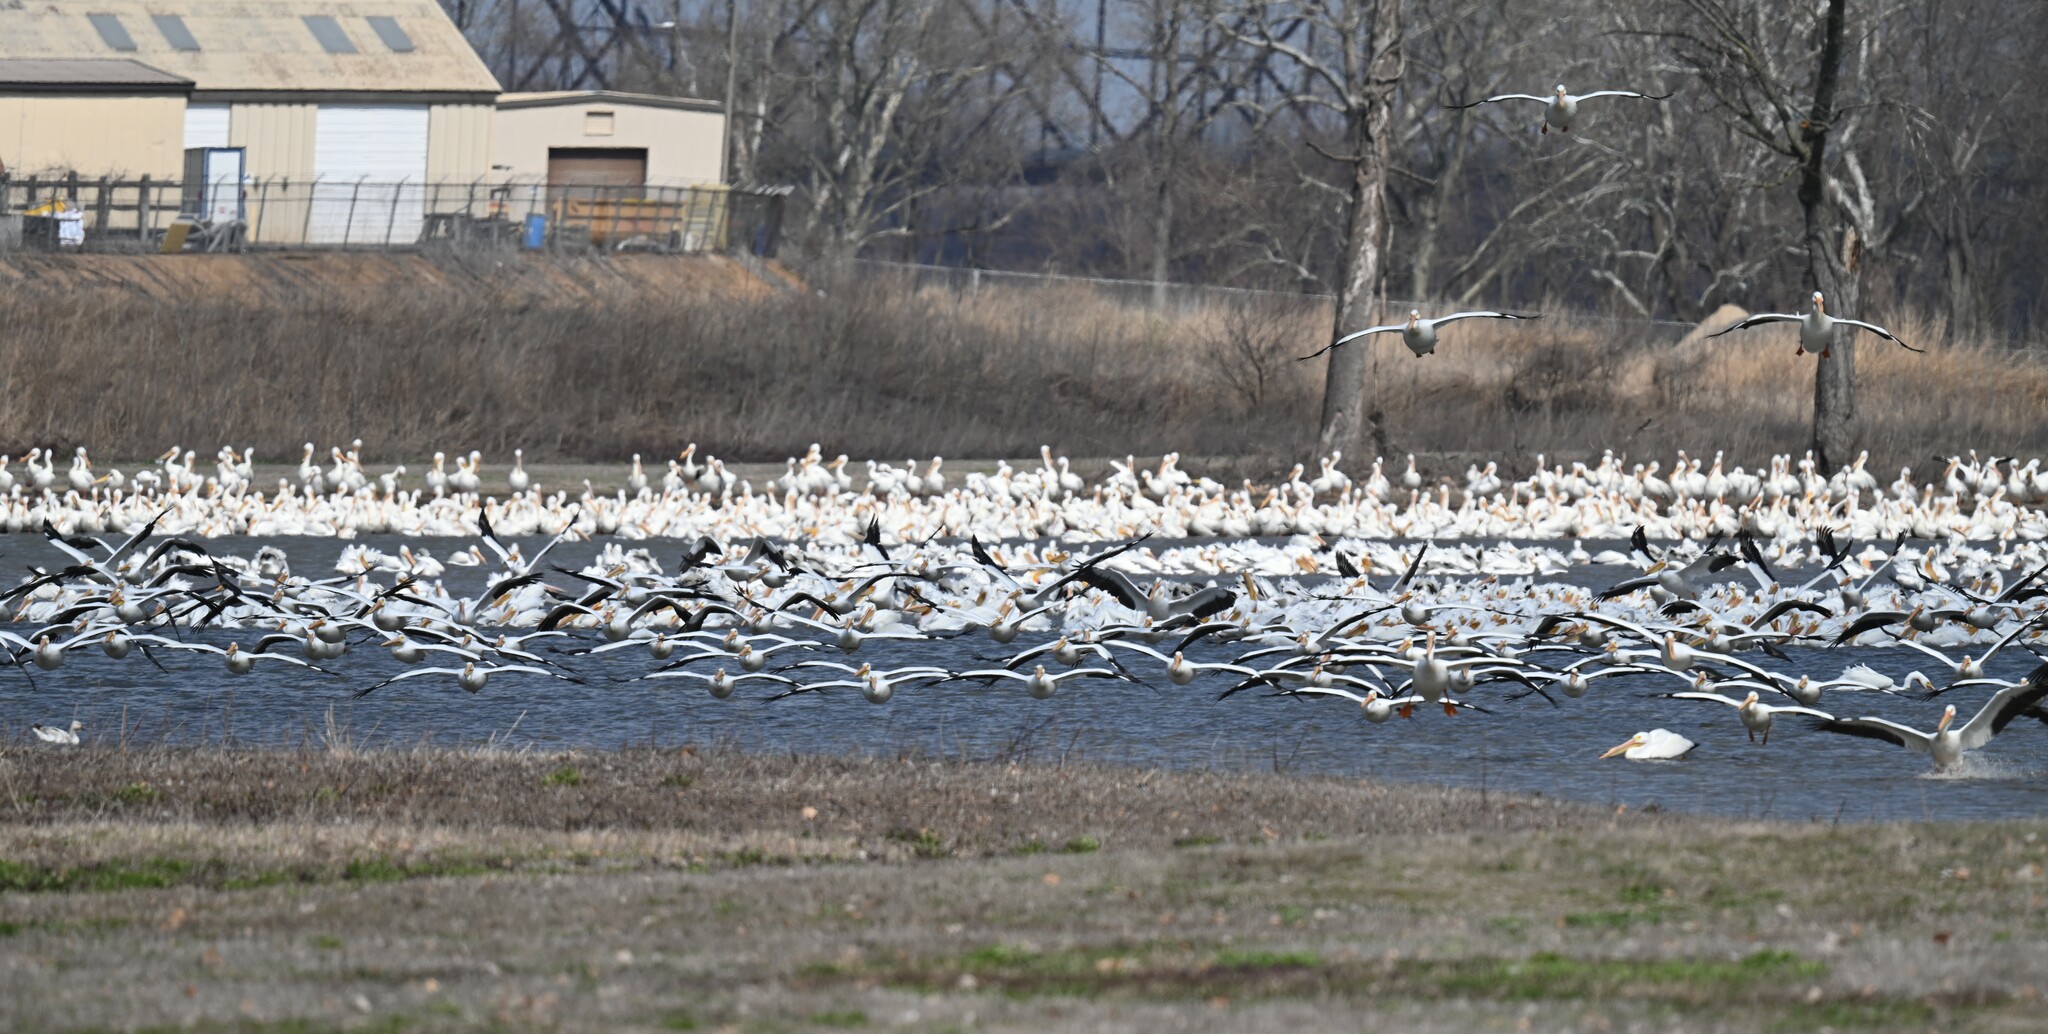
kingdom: Animalia
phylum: Chordata
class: Aves
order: Pelecaniformes
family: Pelecanidae
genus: Pelecanus
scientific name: Pelecanus erythrorhynchos
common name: American white pelican
